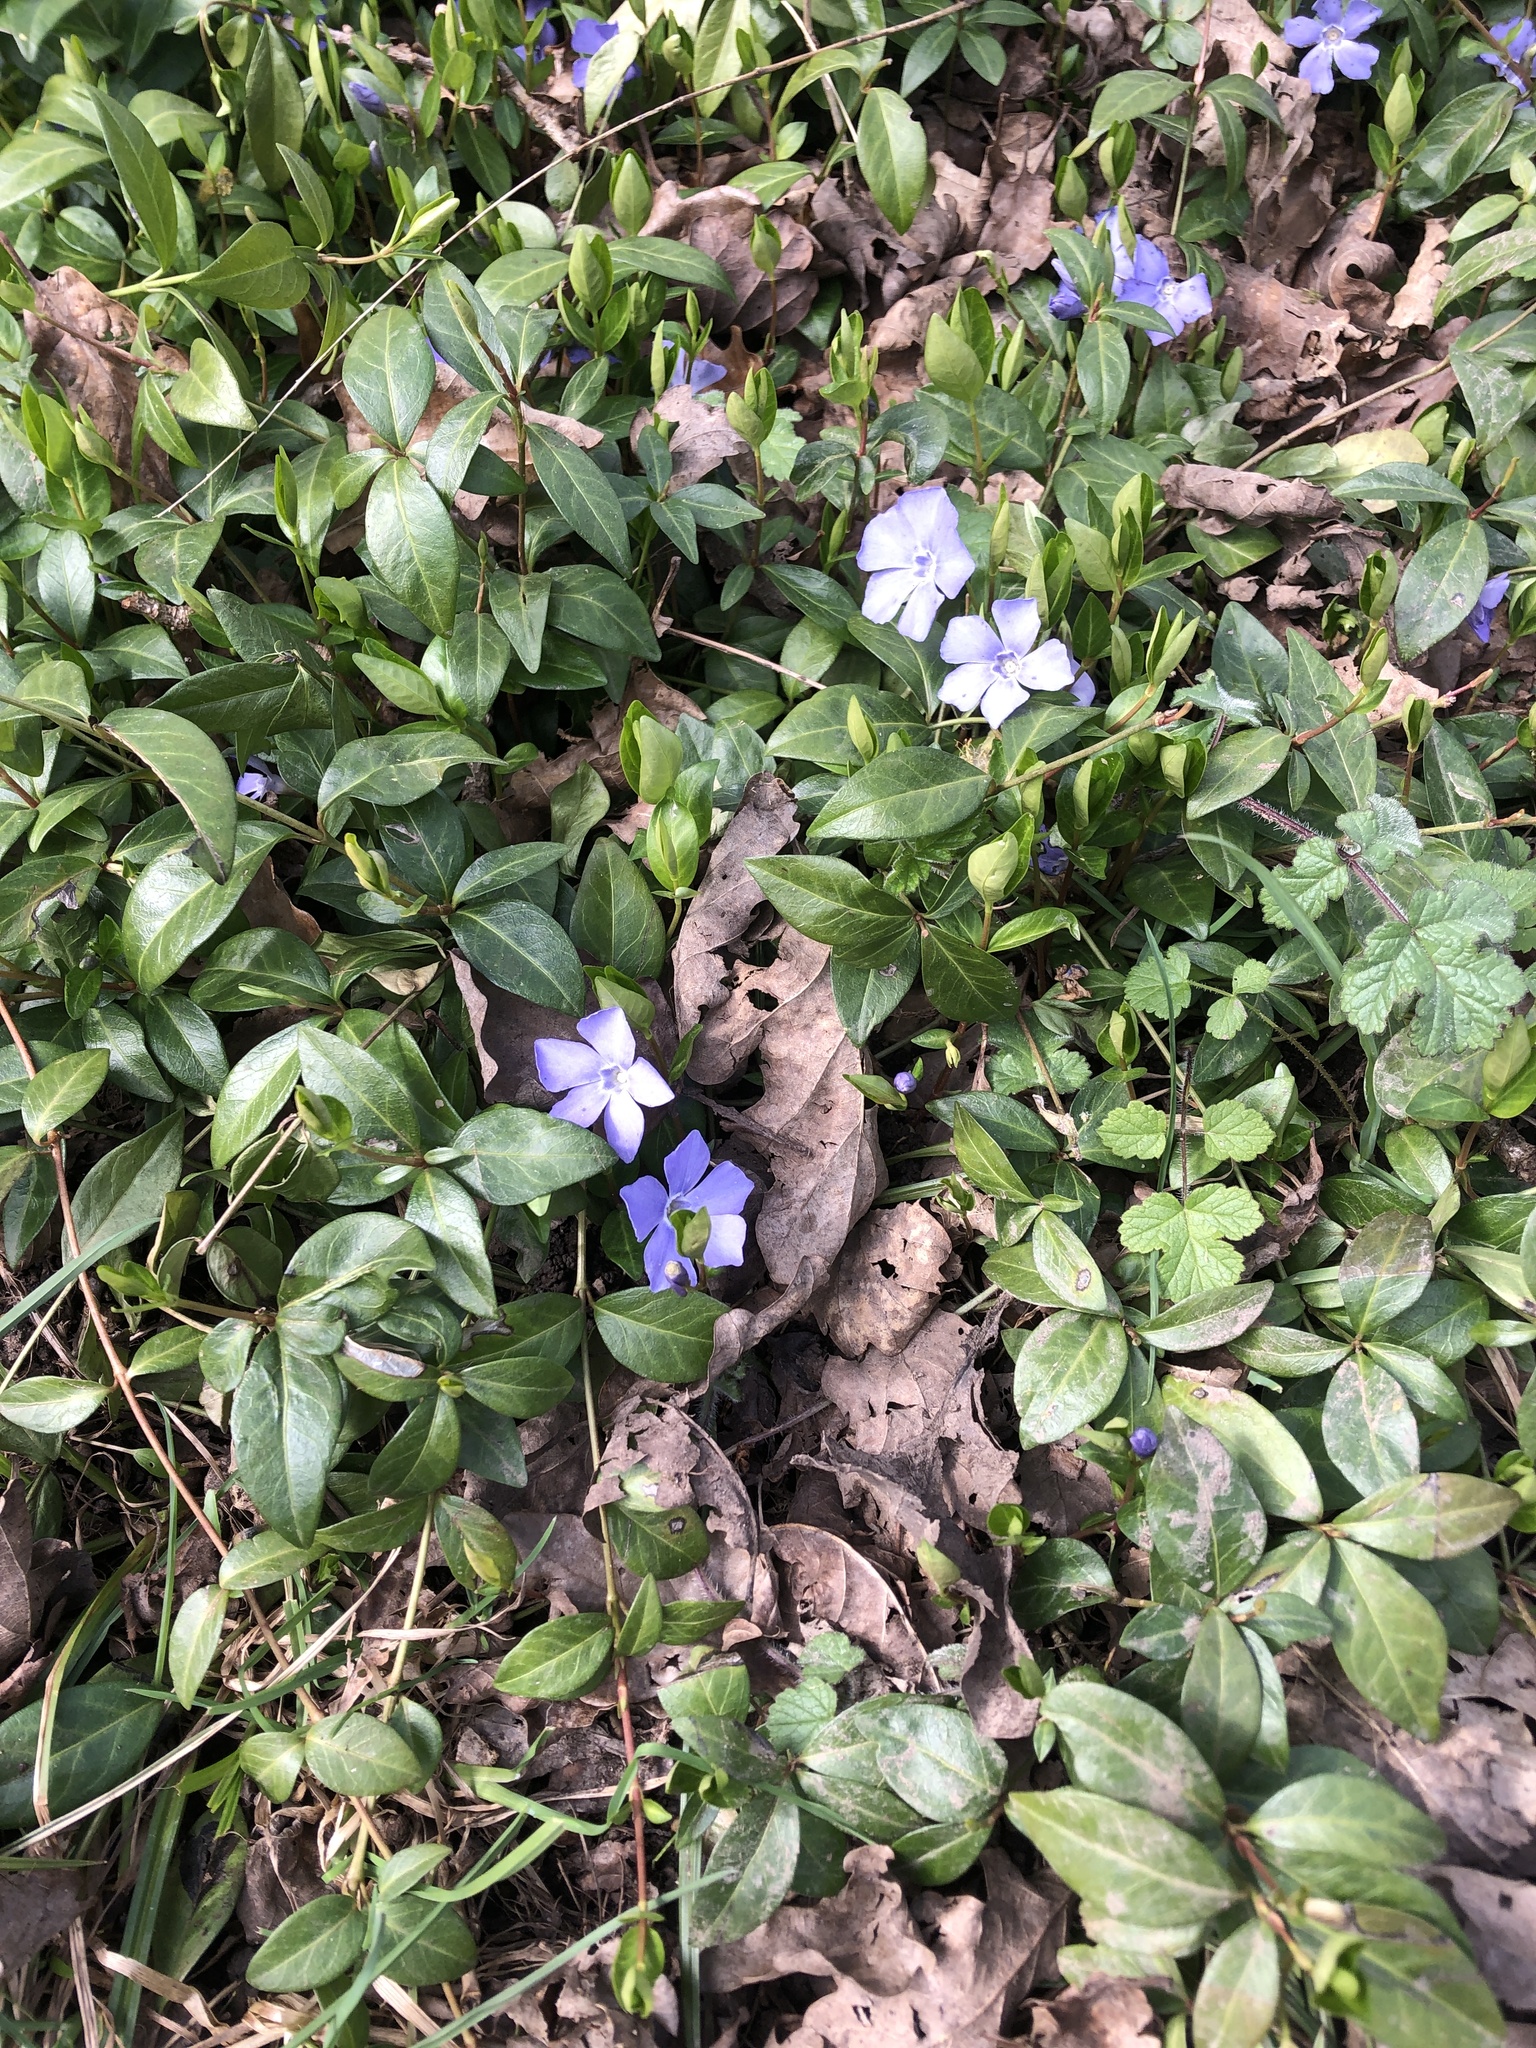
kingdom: Plantae
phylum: Tracheophyta
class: Magnoliopsida
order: Gentianales
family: Apocynaceae
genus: Vinca
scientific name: Vinca minor
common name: Lesser periwinkle
